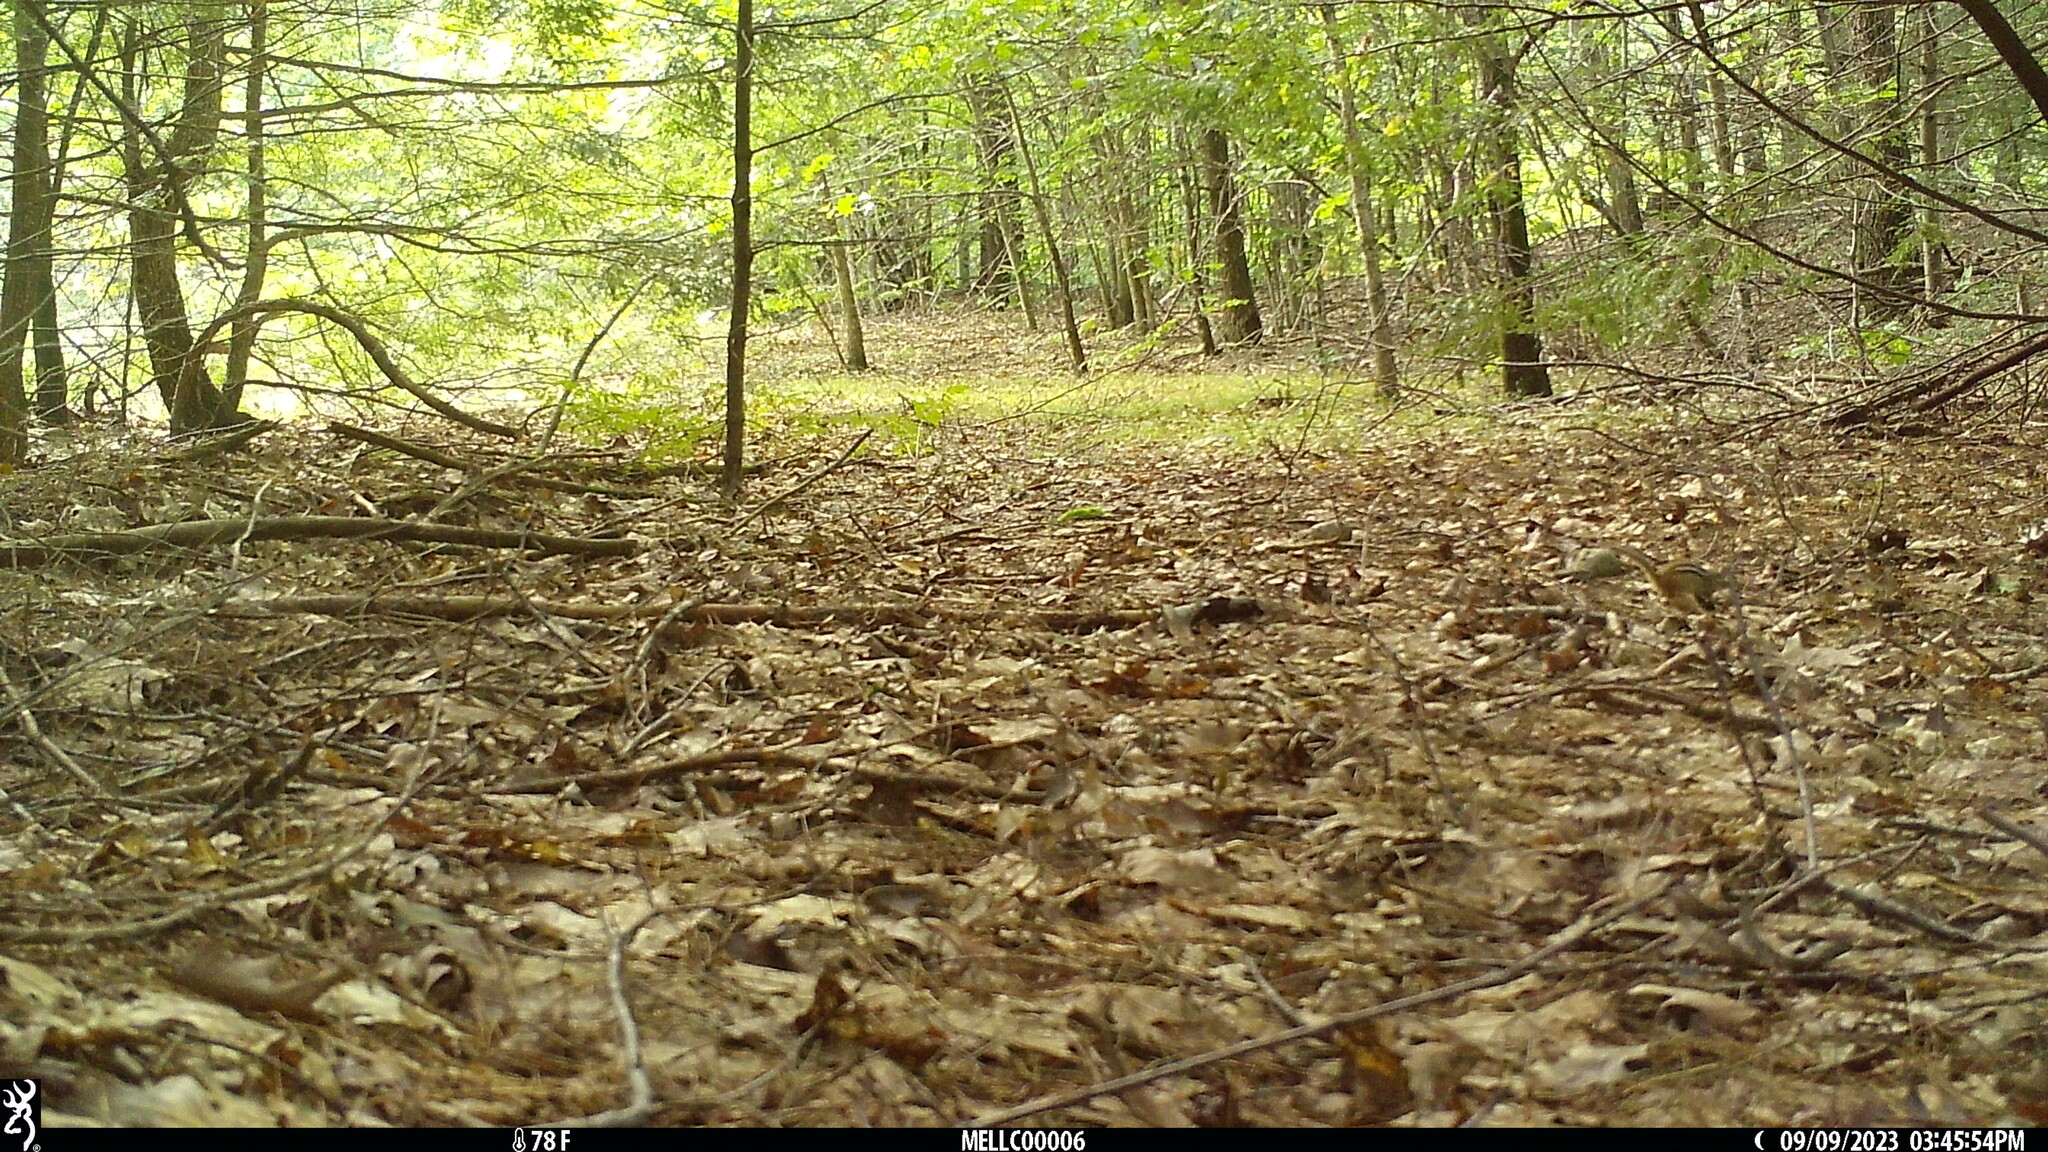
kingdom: Animalia
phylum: Chordata
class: Mammalia
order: Rodentia
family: Sciuridae
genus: Tamias
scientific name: Tamias striatus
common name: Eastern chipmunk
